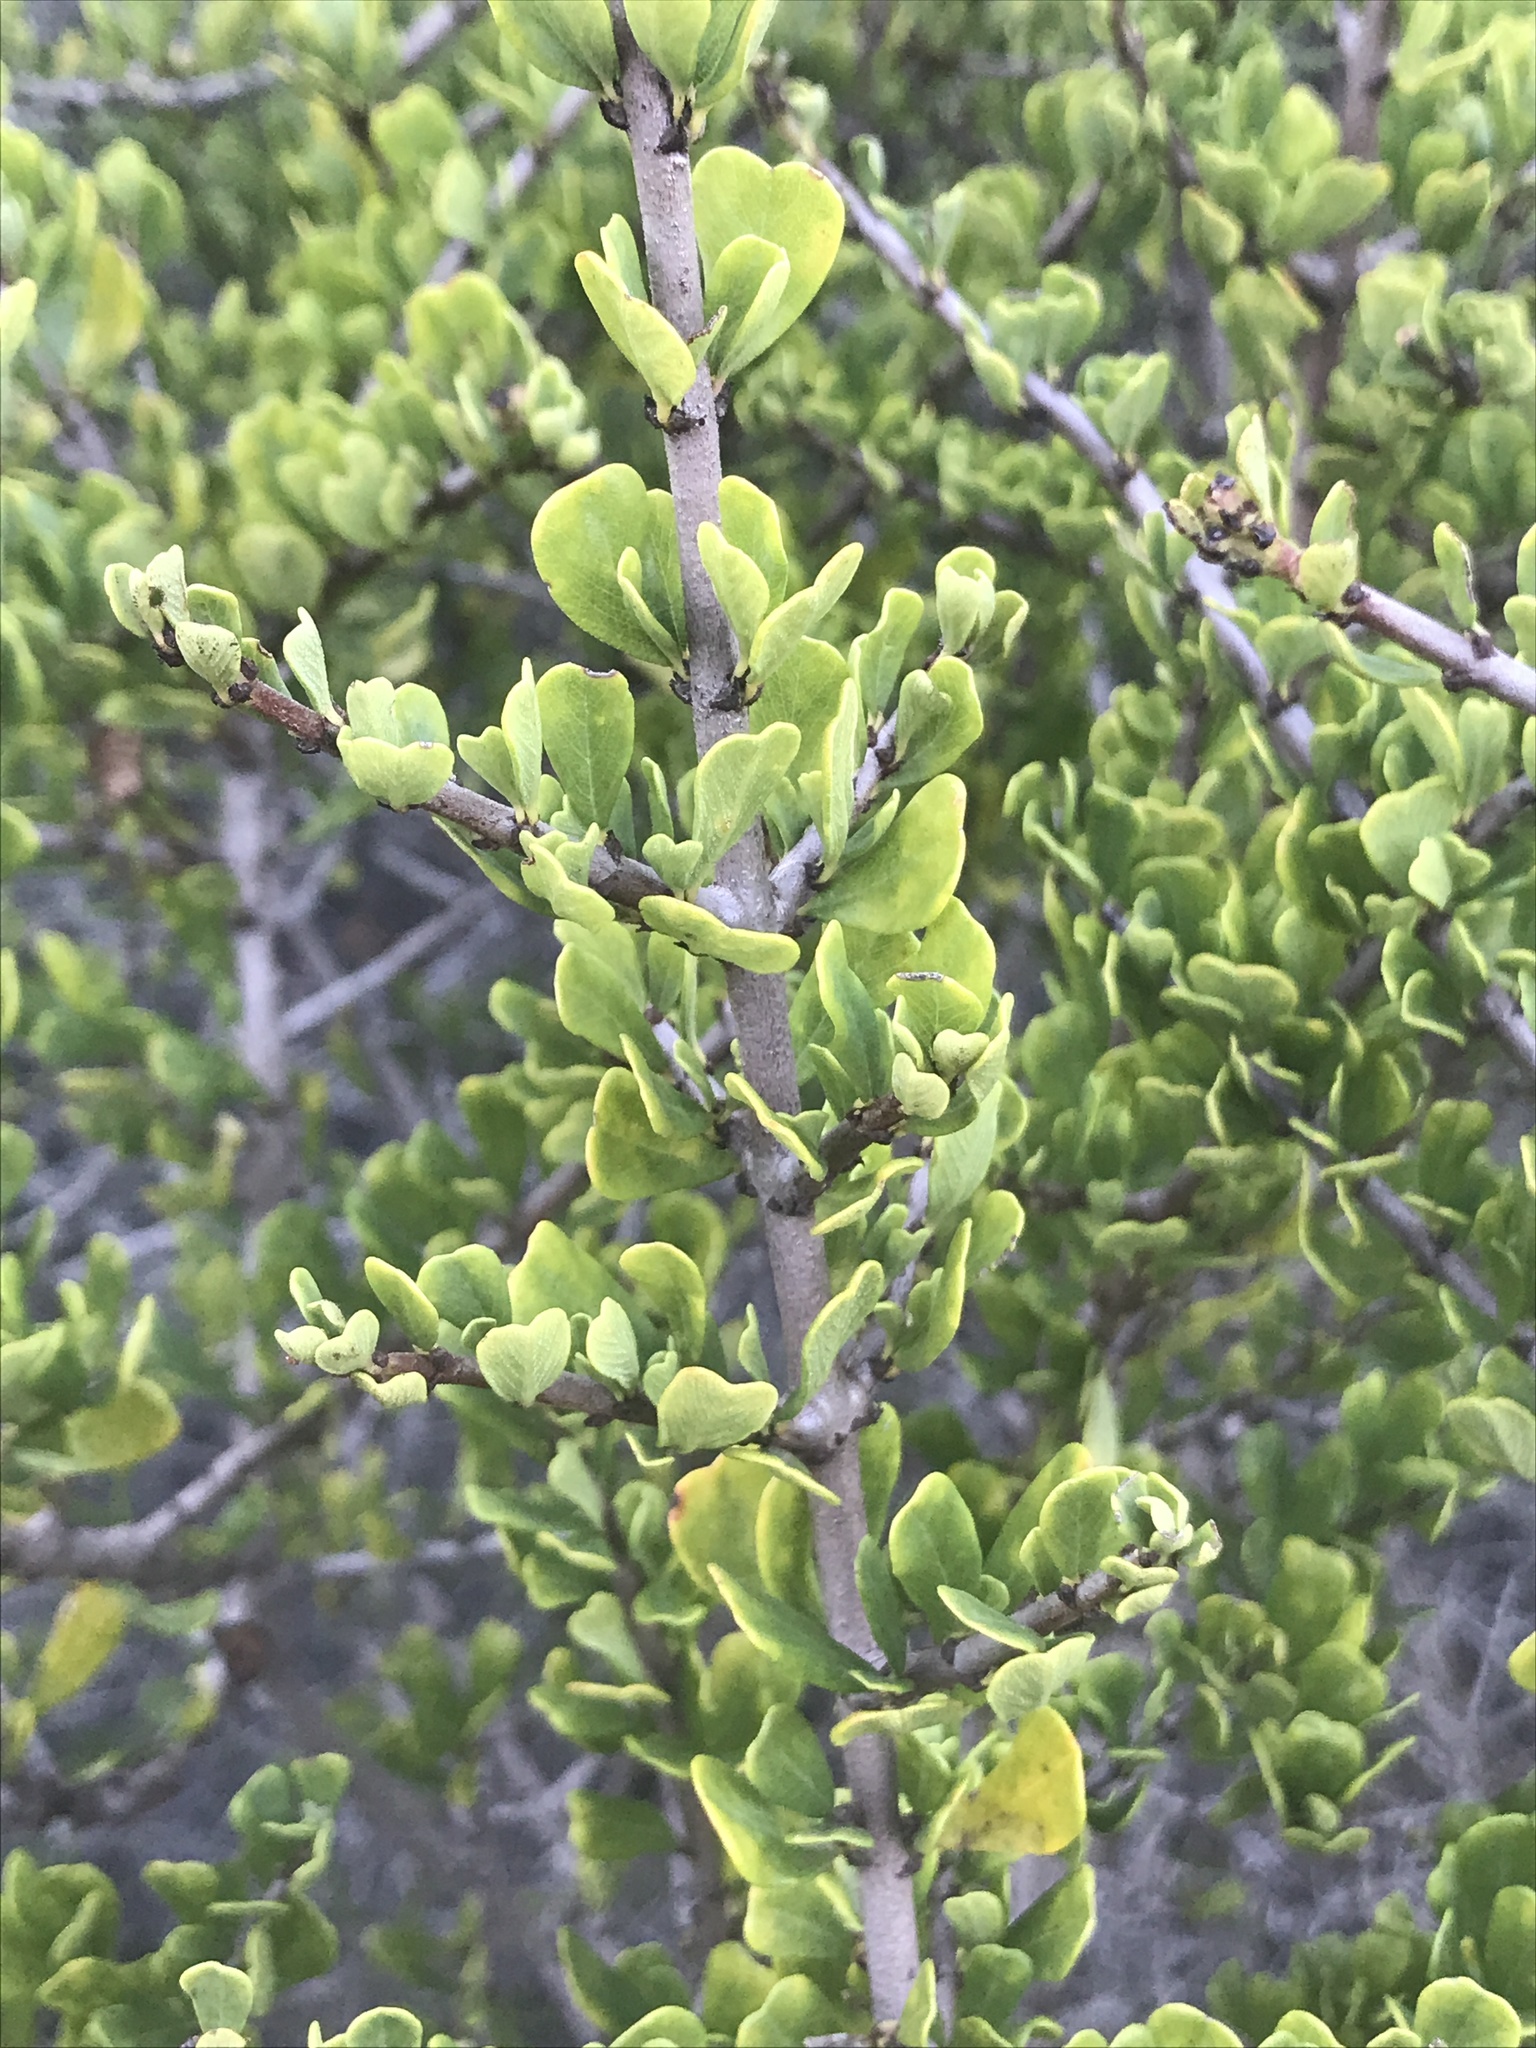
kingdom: Plantae
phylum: Tracheophyta
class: Magnoliopsida
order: Rosales
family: Rhamnaceae
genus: Ceanothus
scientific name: Ceanothus cuneatus
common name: Cuneate ceanothus
